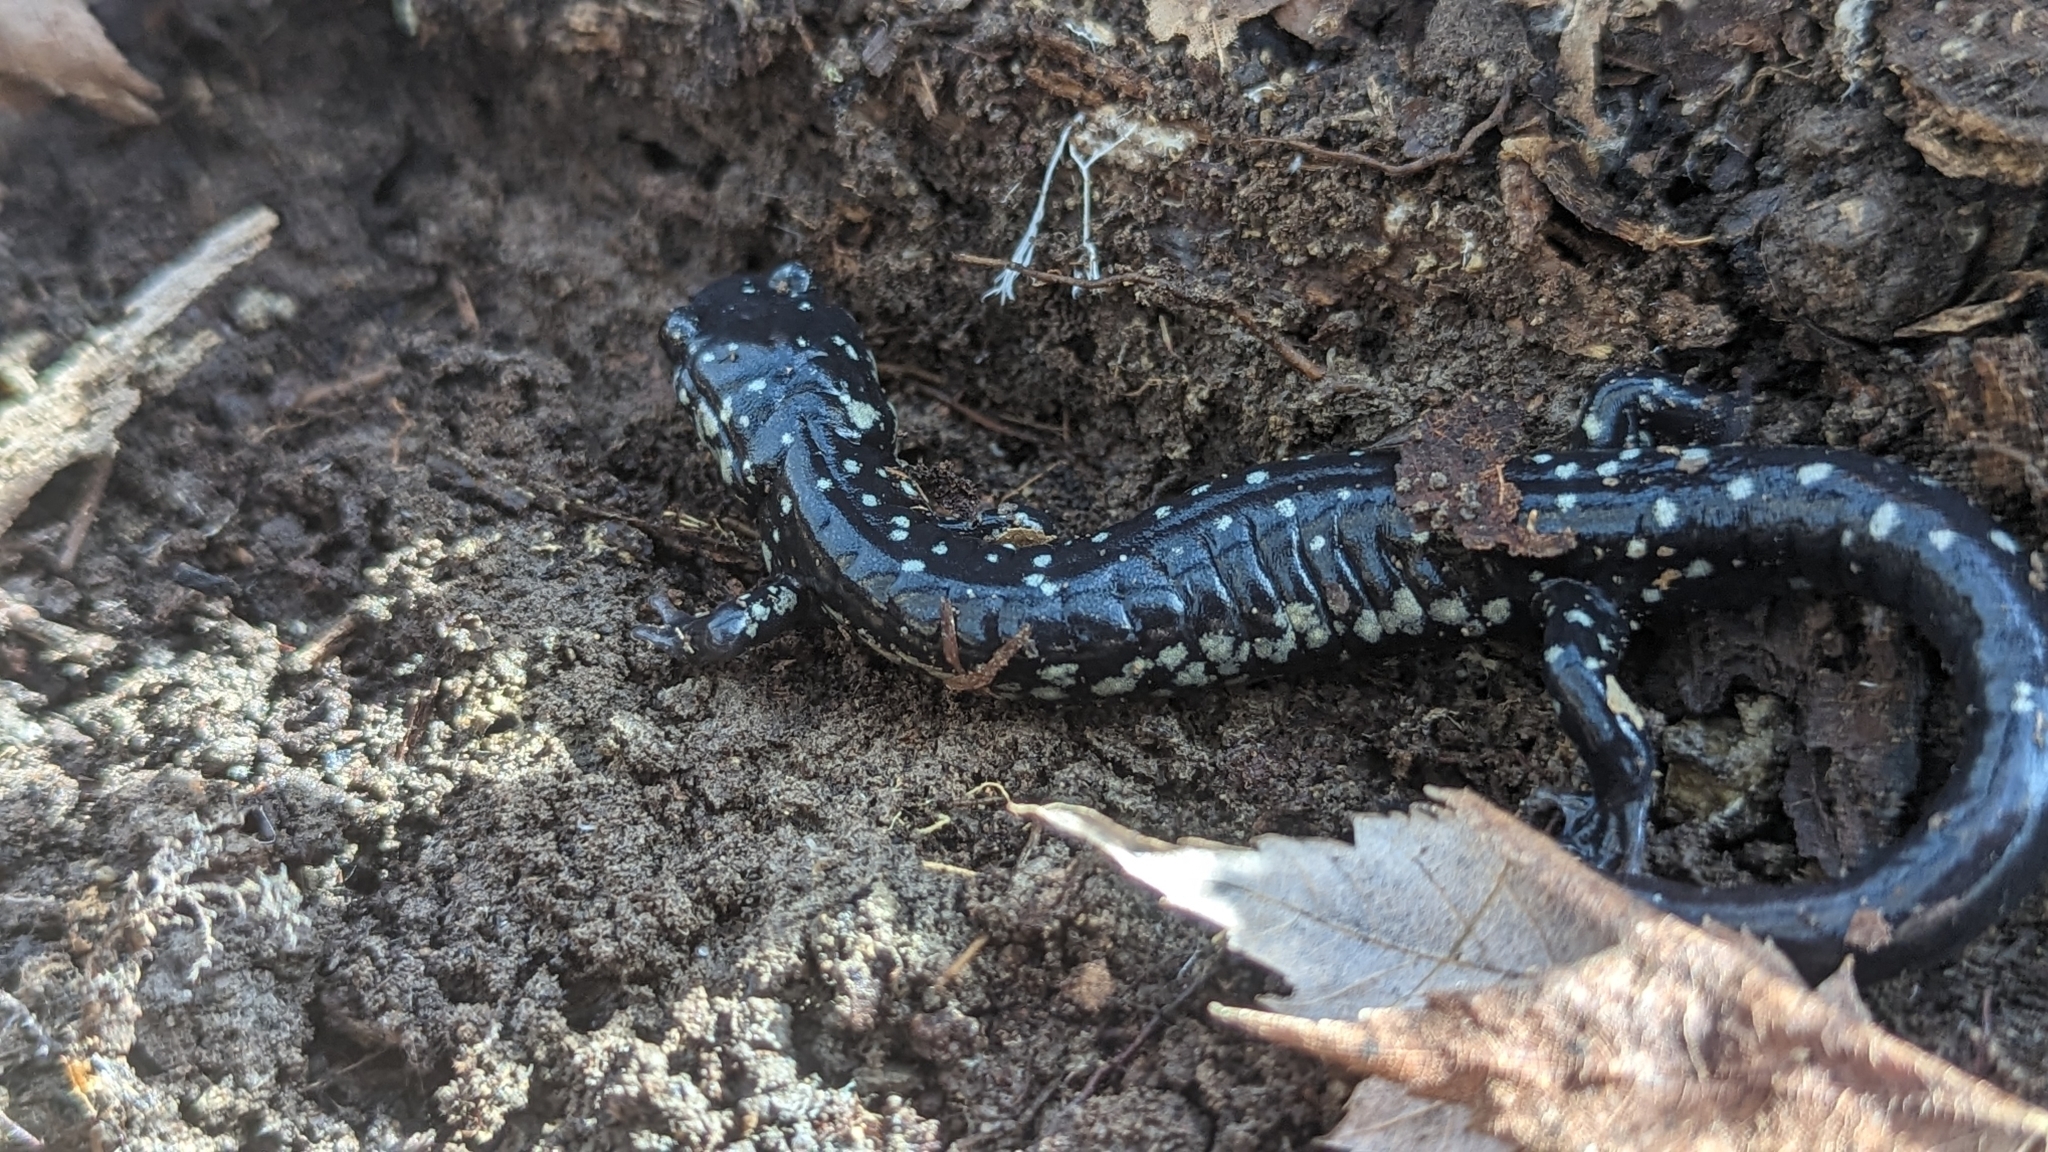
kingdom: Animalia
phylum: Chordata
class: Amphibia
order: Caudata
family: Plethodontidae
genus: Plethodon
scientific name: Plethodon glutinosus
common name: Northern slimy salamander
